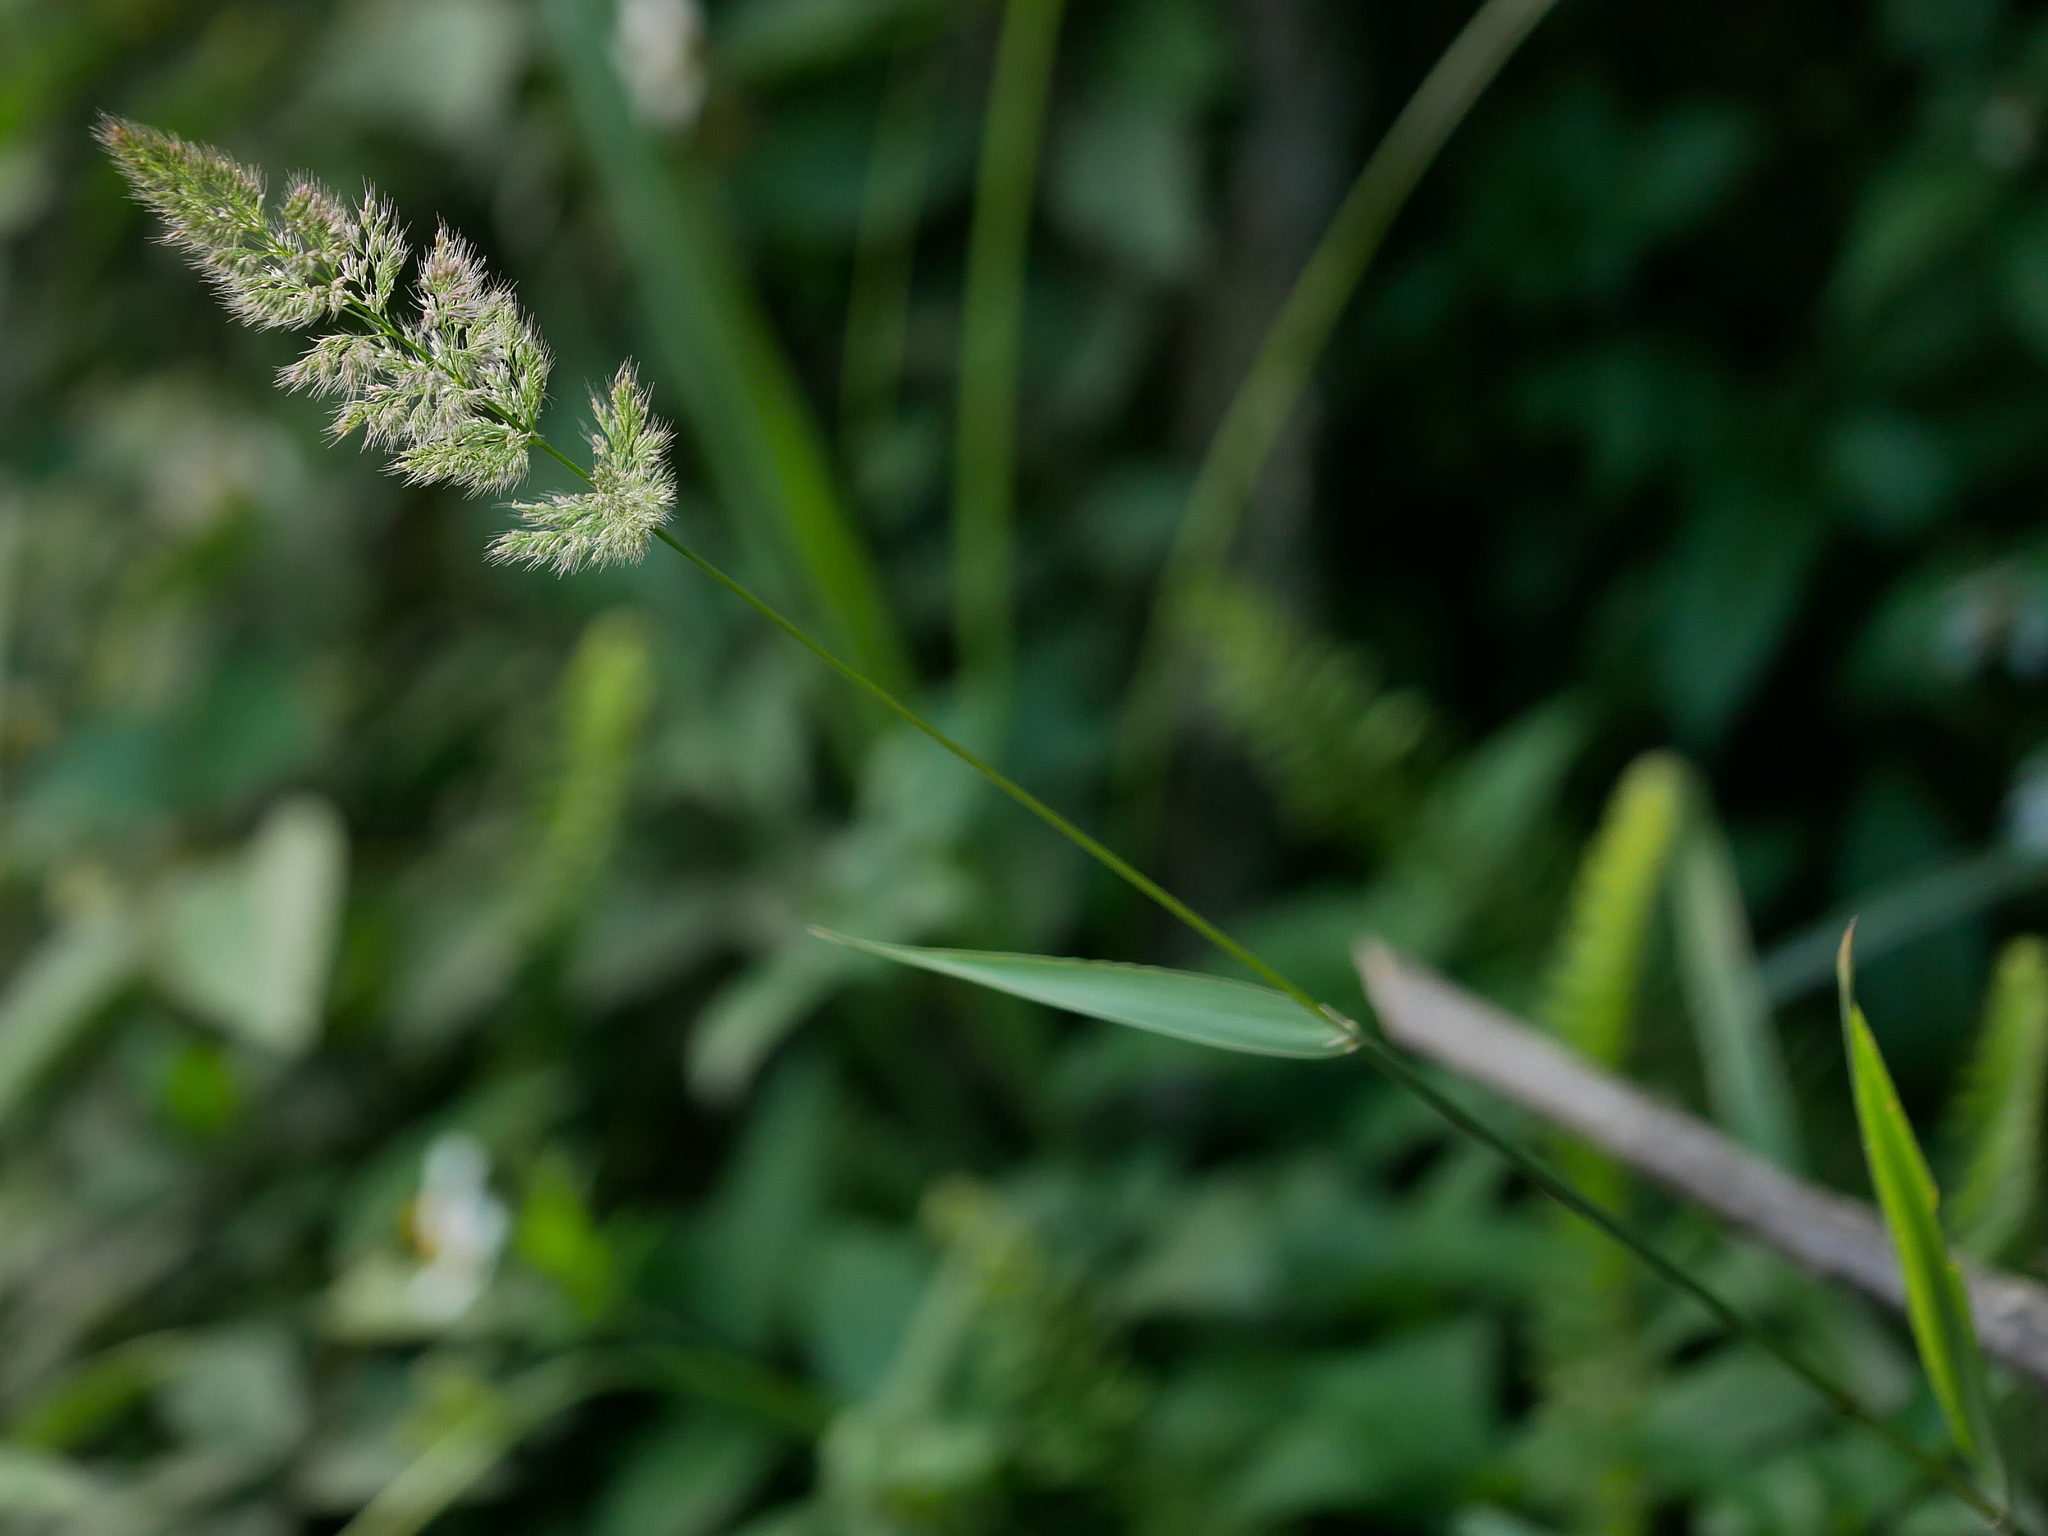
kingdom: Plantae
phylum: Tracheophyta
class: Liliopsida
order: Poales
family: Poaceae
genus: Polypogon
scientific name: Polypogon fugax
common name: Asia minor bluegrass
